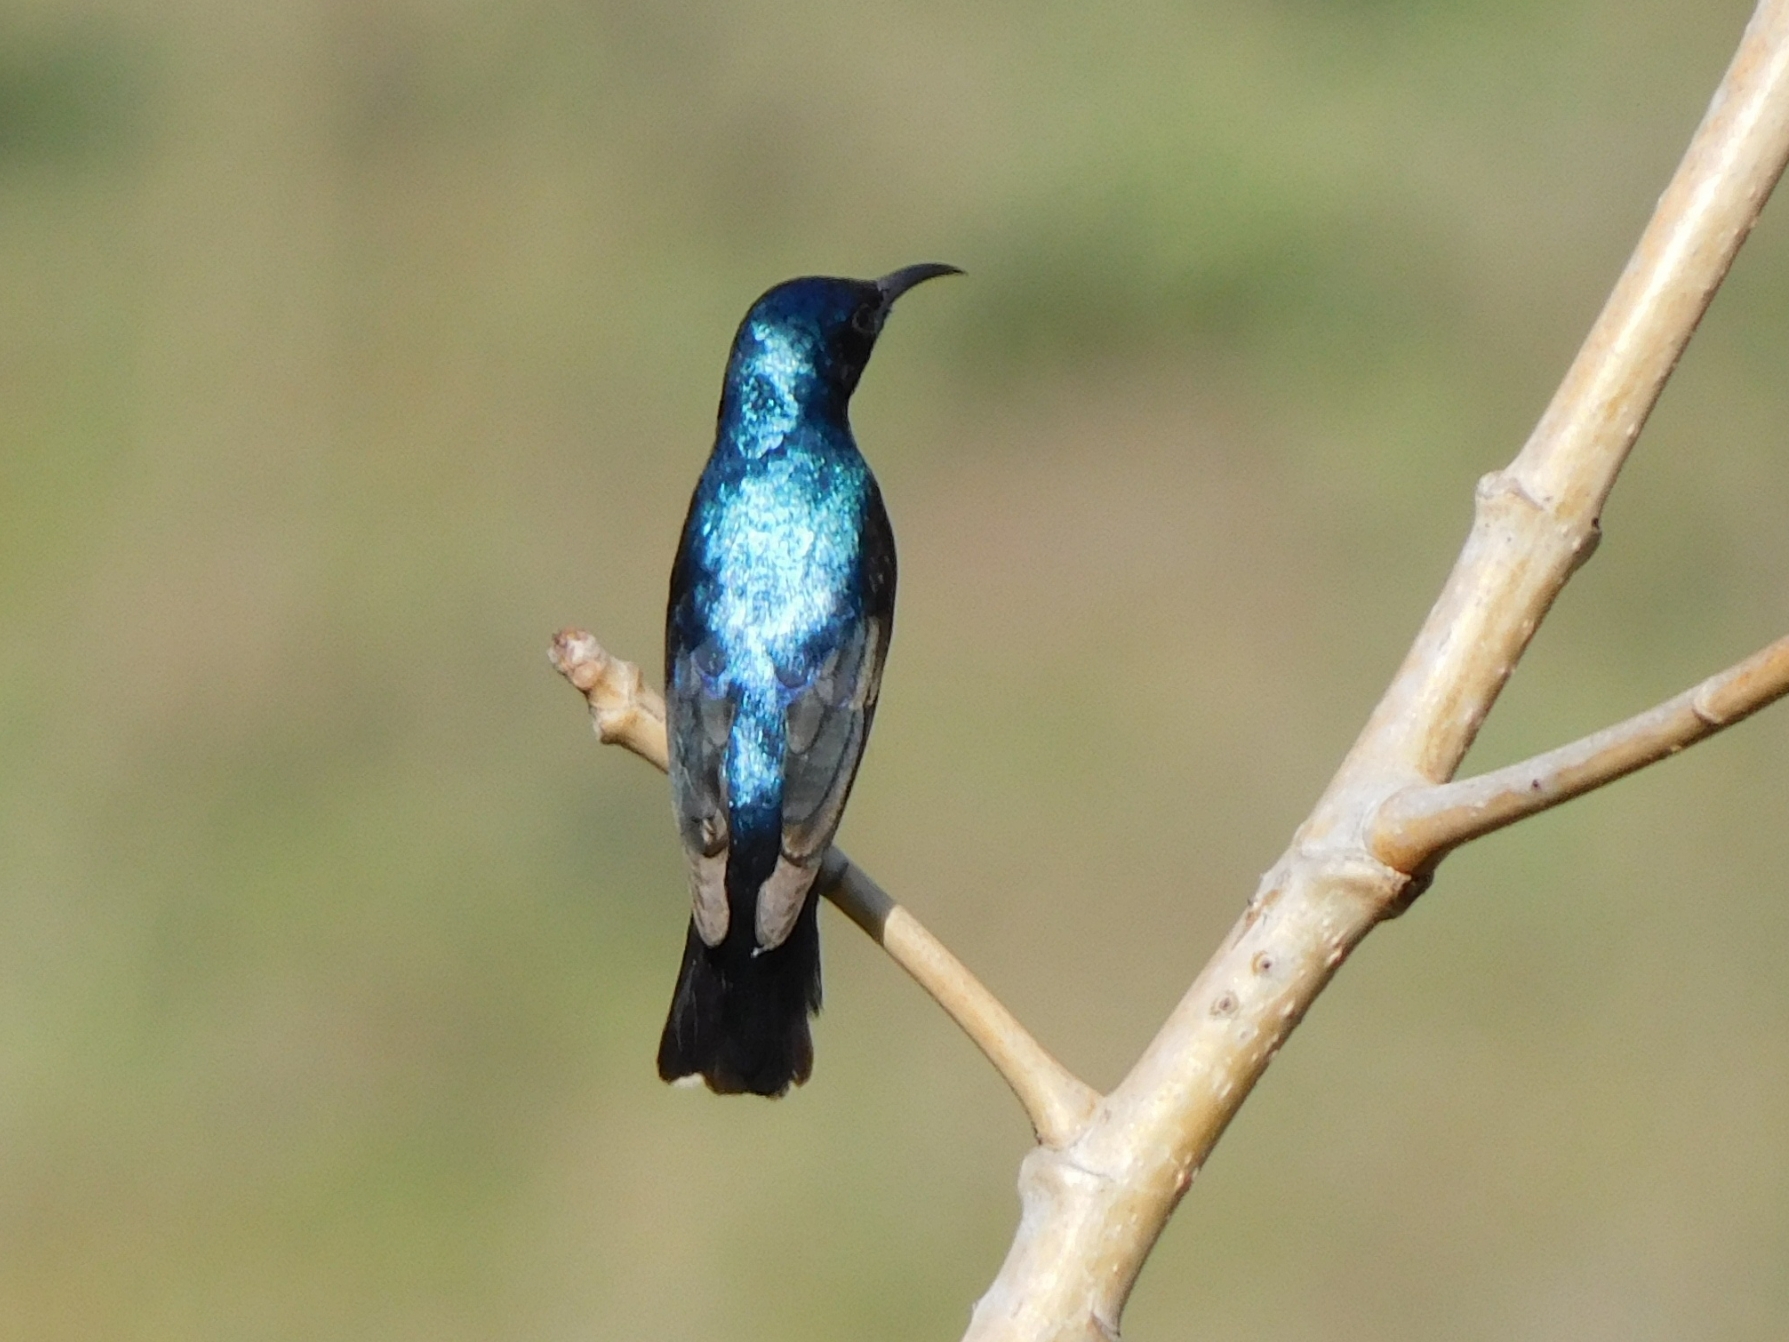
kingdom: Animalia
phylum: Chordata
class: Aves
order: Passeriformes
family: Nectariniidae
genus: Cinnyris
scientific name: Cinnyris asiaticus
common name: Purple sunbird
